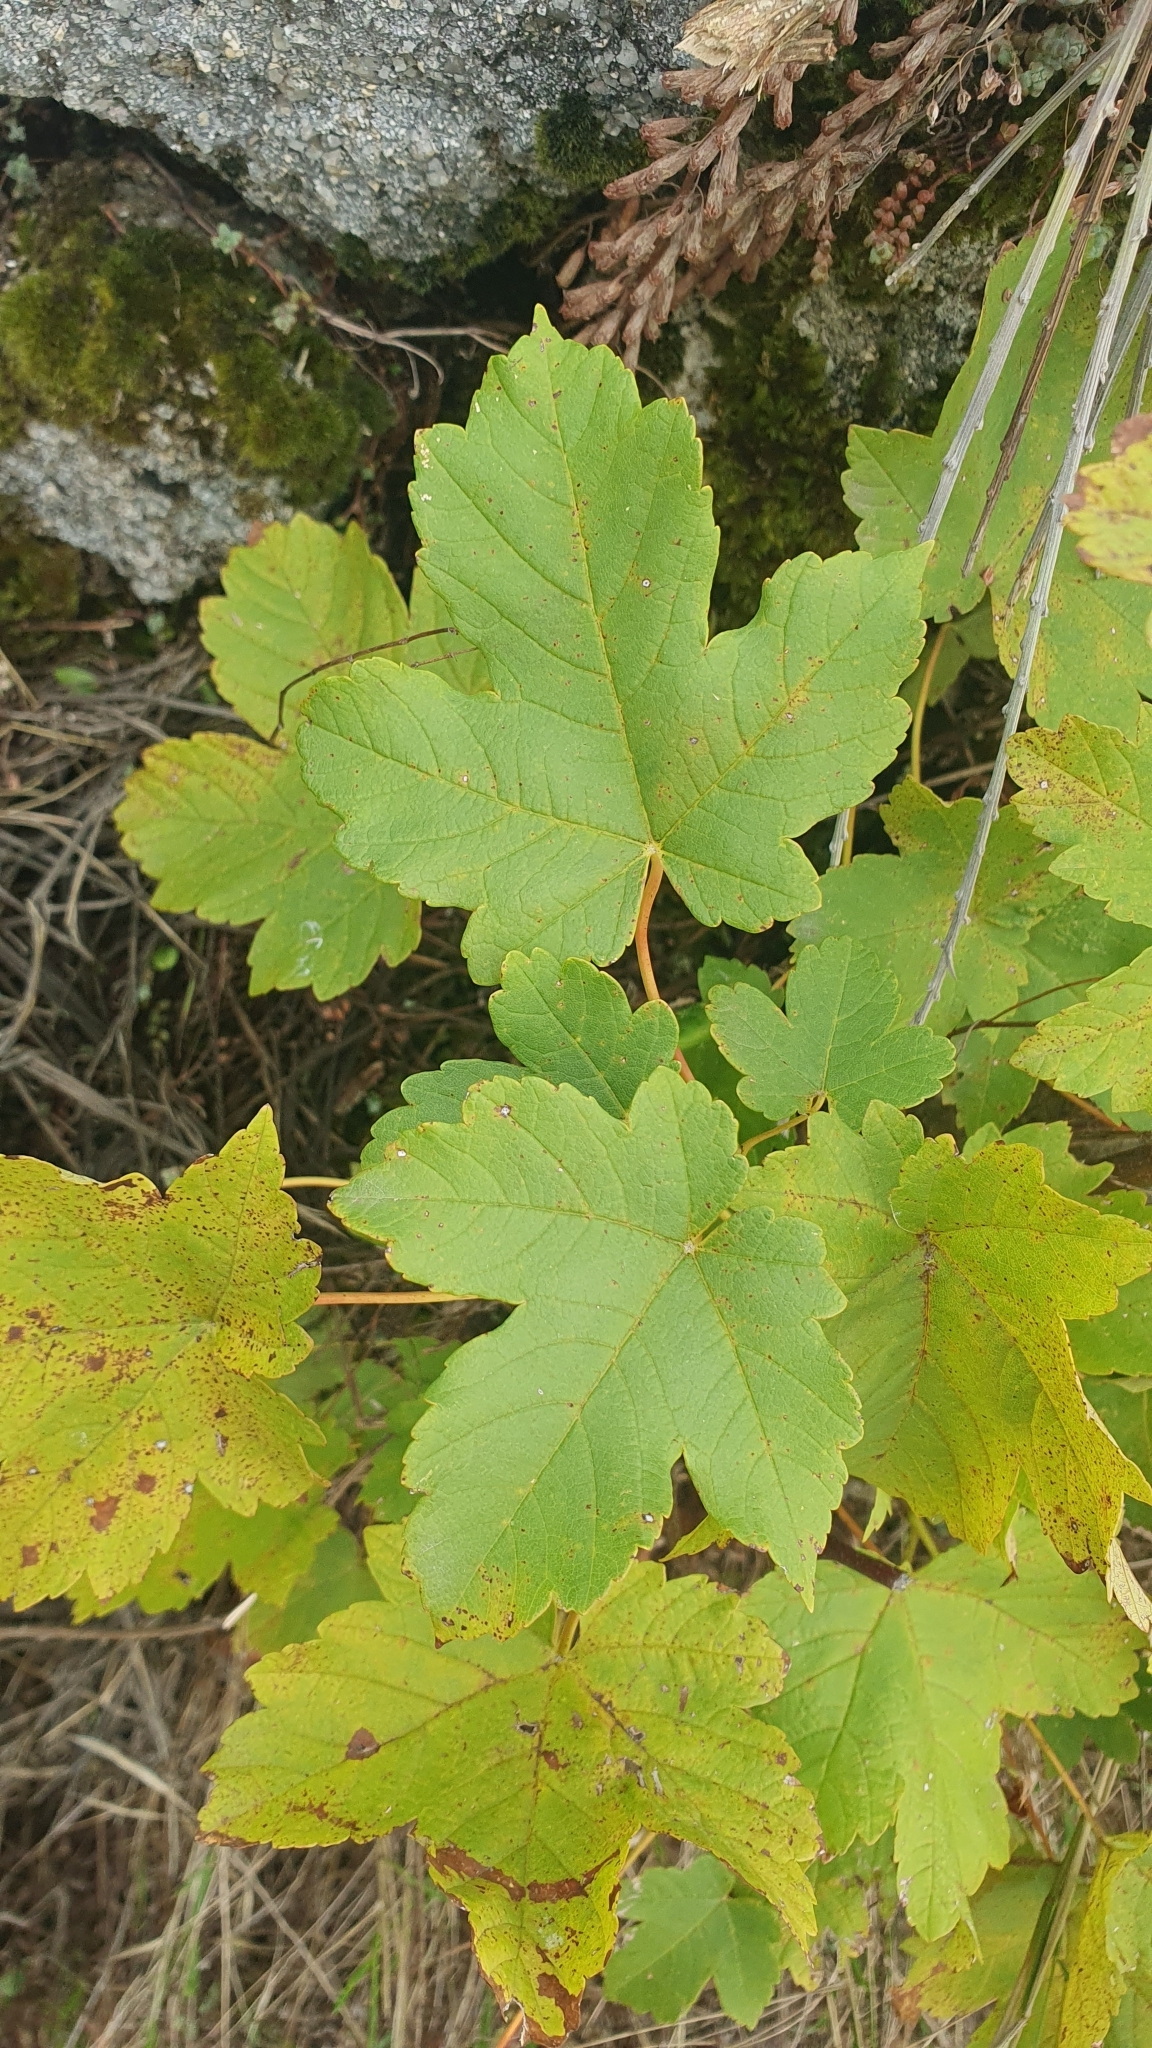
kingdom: Plantae
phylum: Tracheophyta
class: Magnoliopsida
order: Sapindales
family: Sapindaceae
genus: Acer
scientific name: Acer campestre
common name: Field maple
